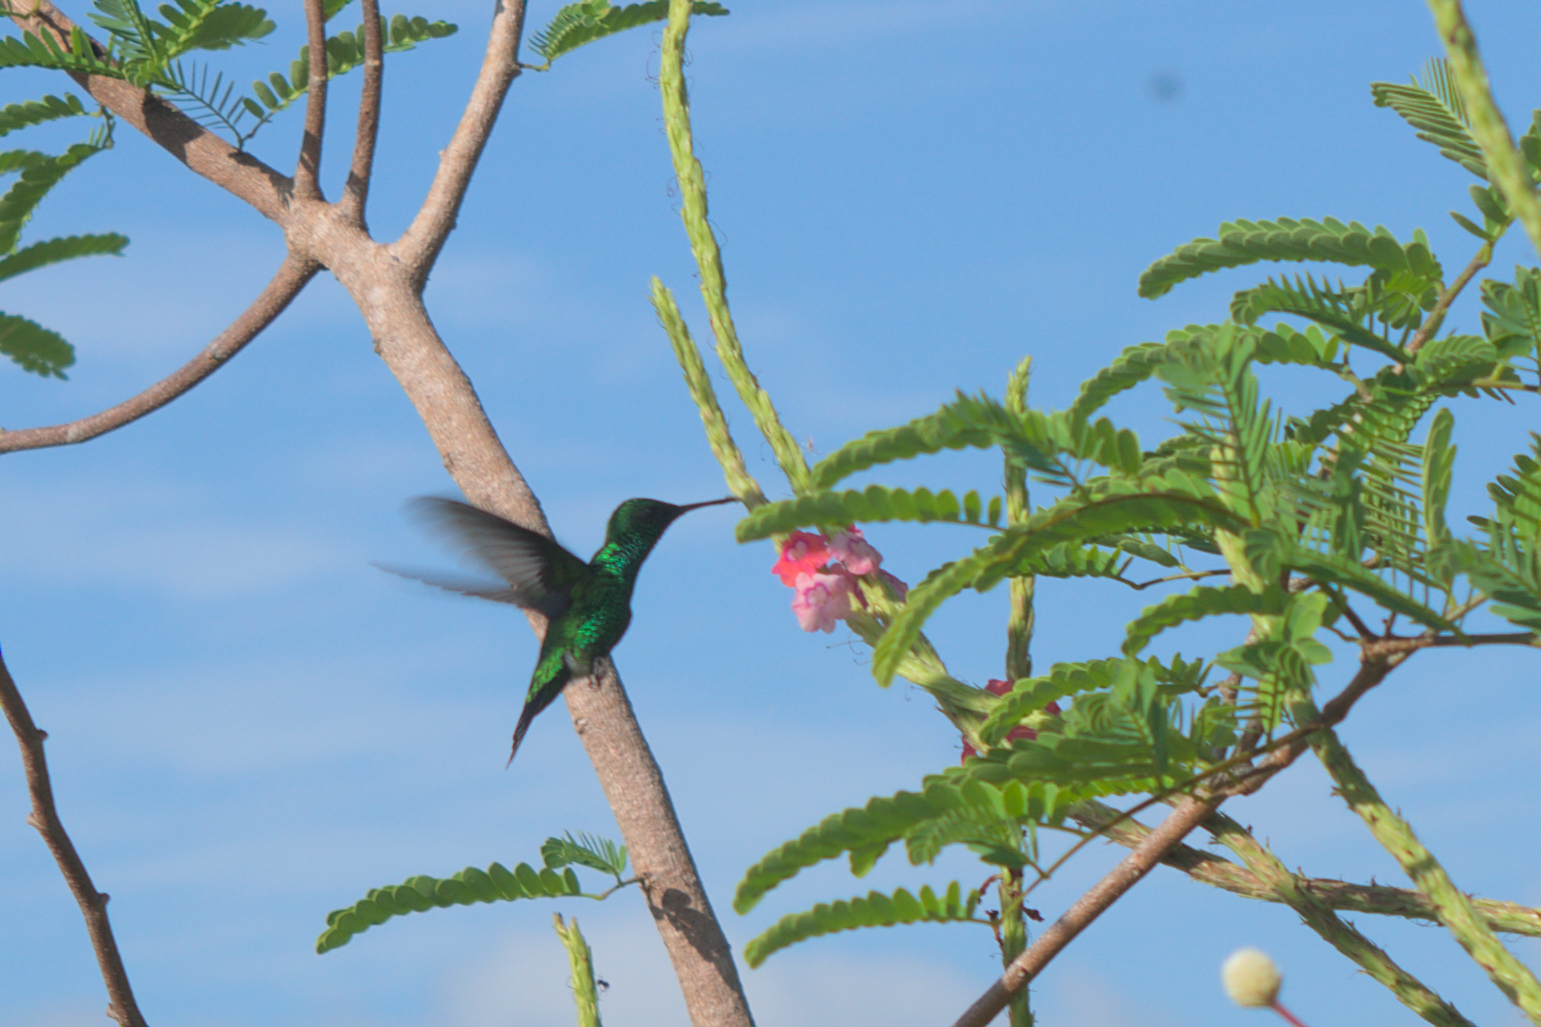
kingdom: Animalia
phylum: Chordata
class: Aves
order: Apodiformes
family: Trochilidae
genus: Chlorostilbon
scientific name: Chlorostilbon assimilis
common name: Garden emerald
